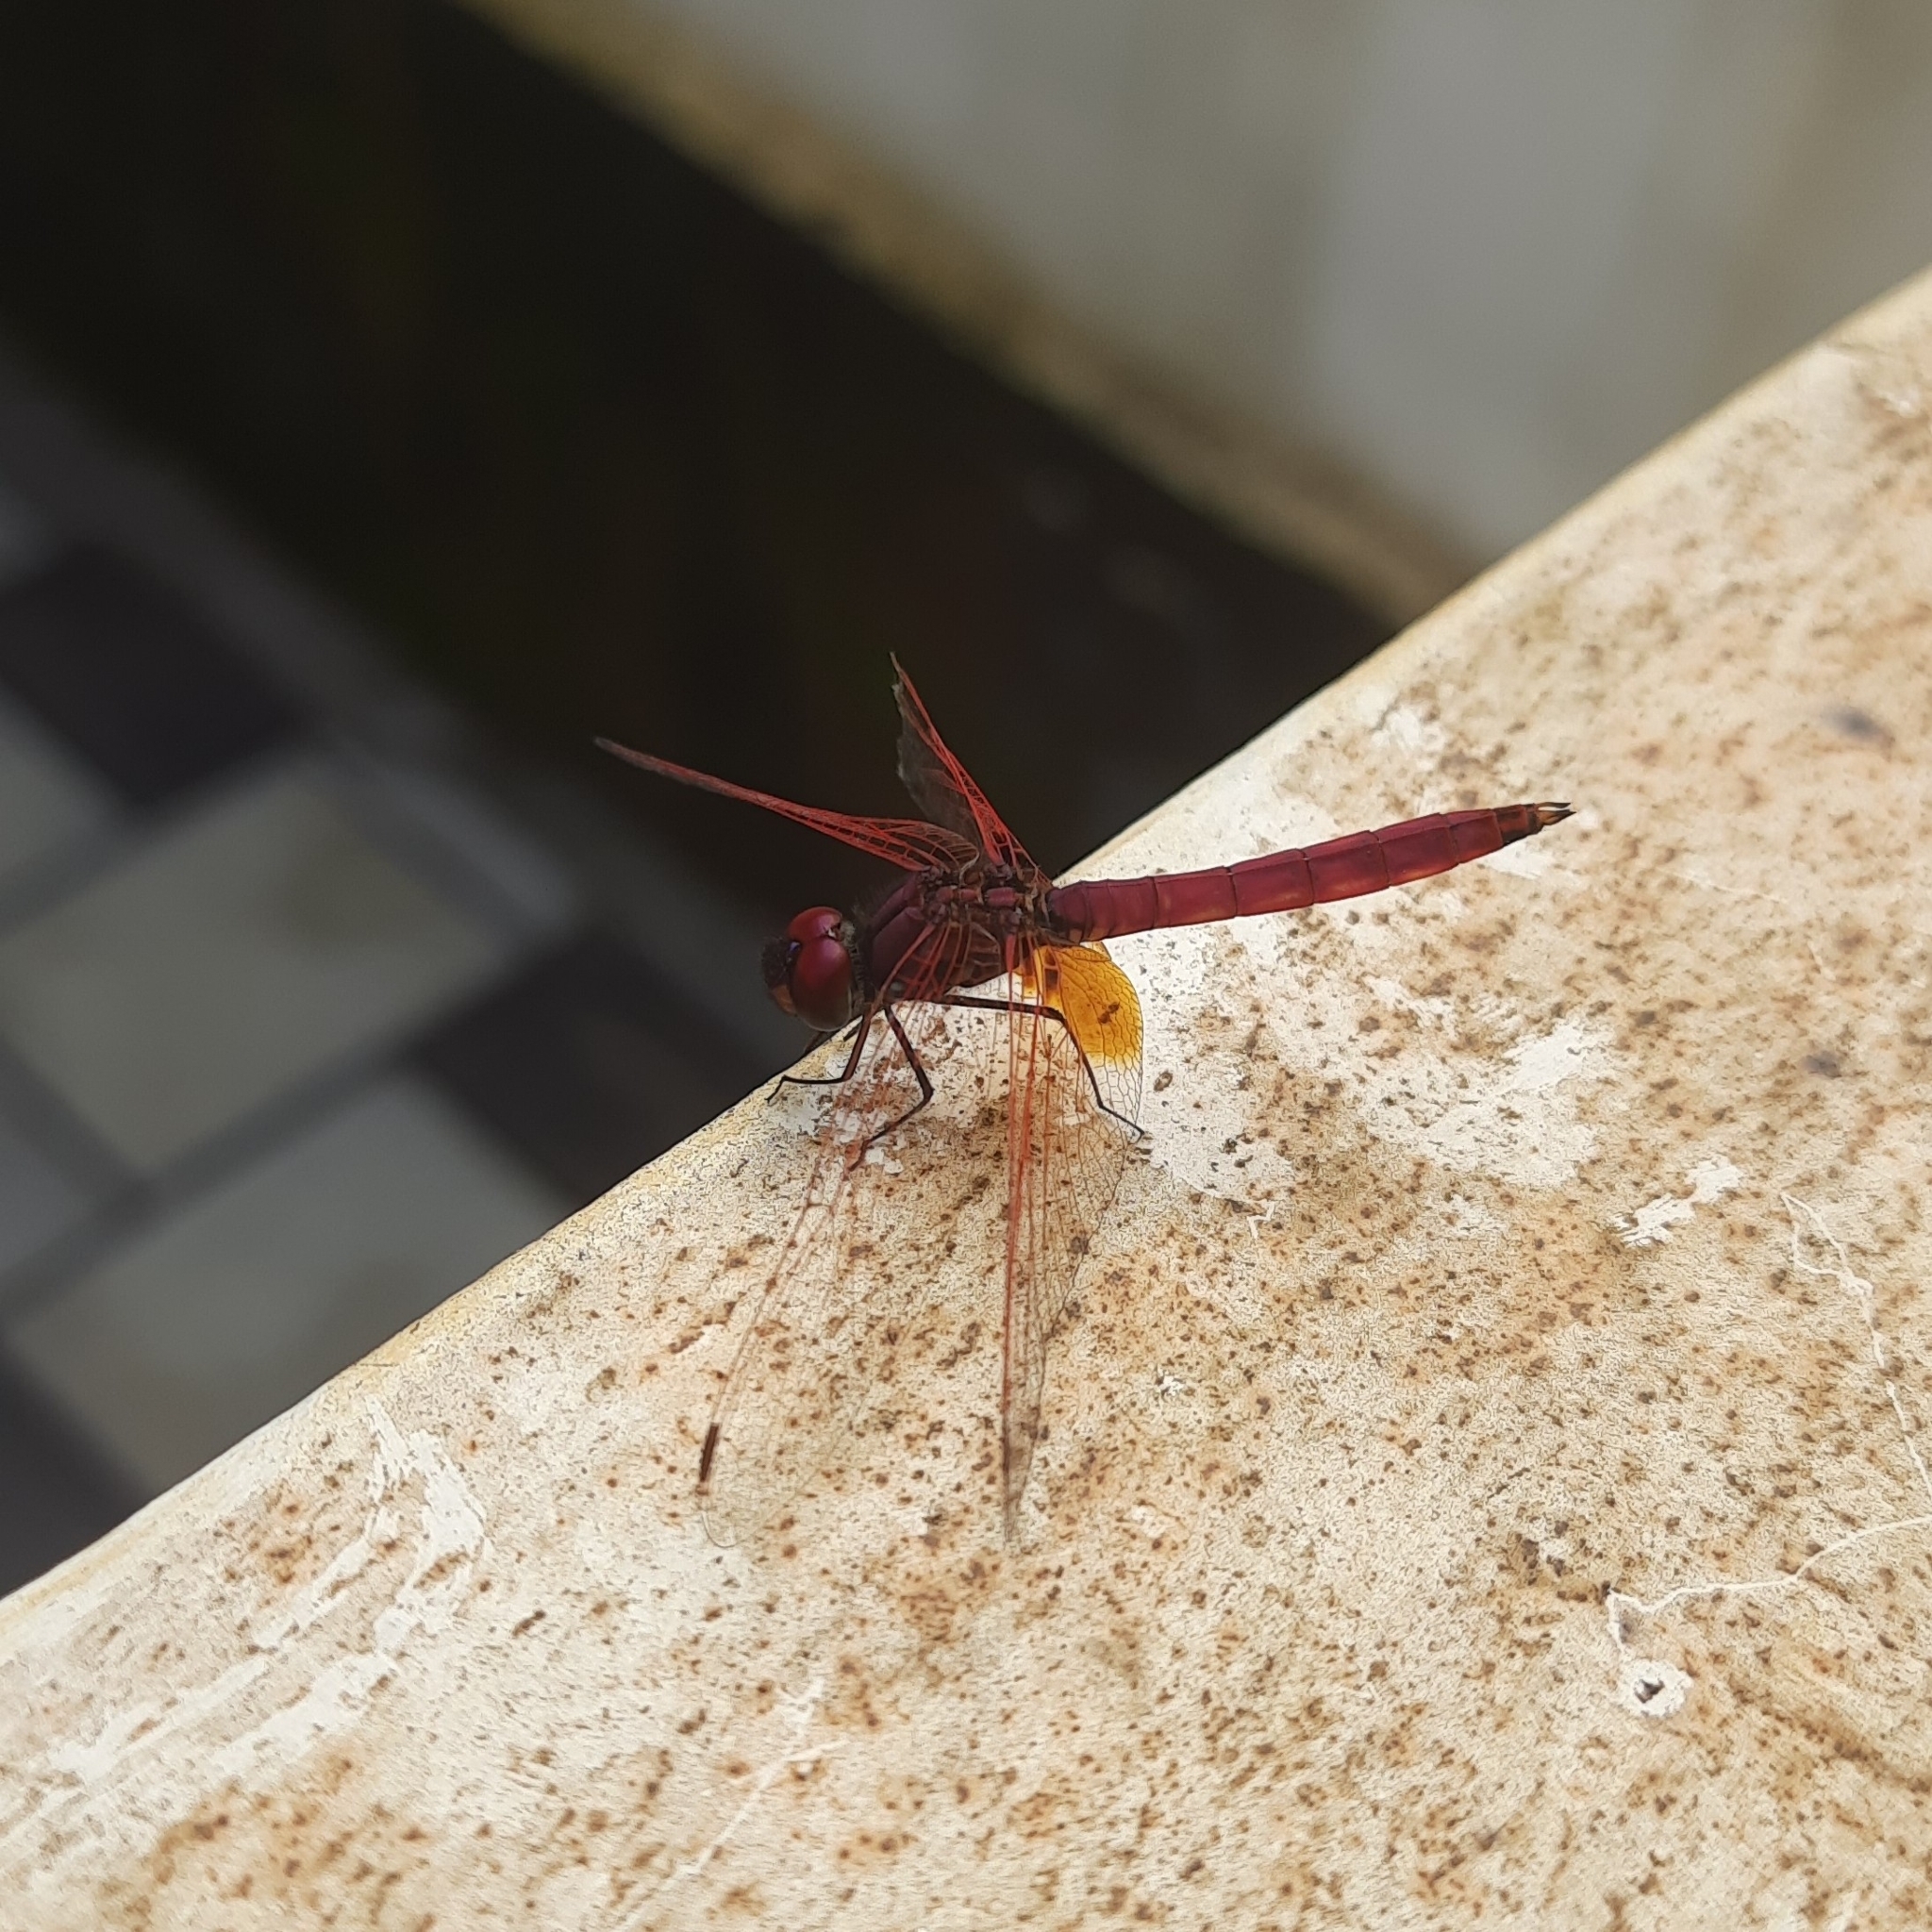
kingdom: Animalia
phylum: Arthropoda
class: Insecta
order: Odonata
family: Libellulidae
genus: Trithemis
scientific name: Trithemis aurora
